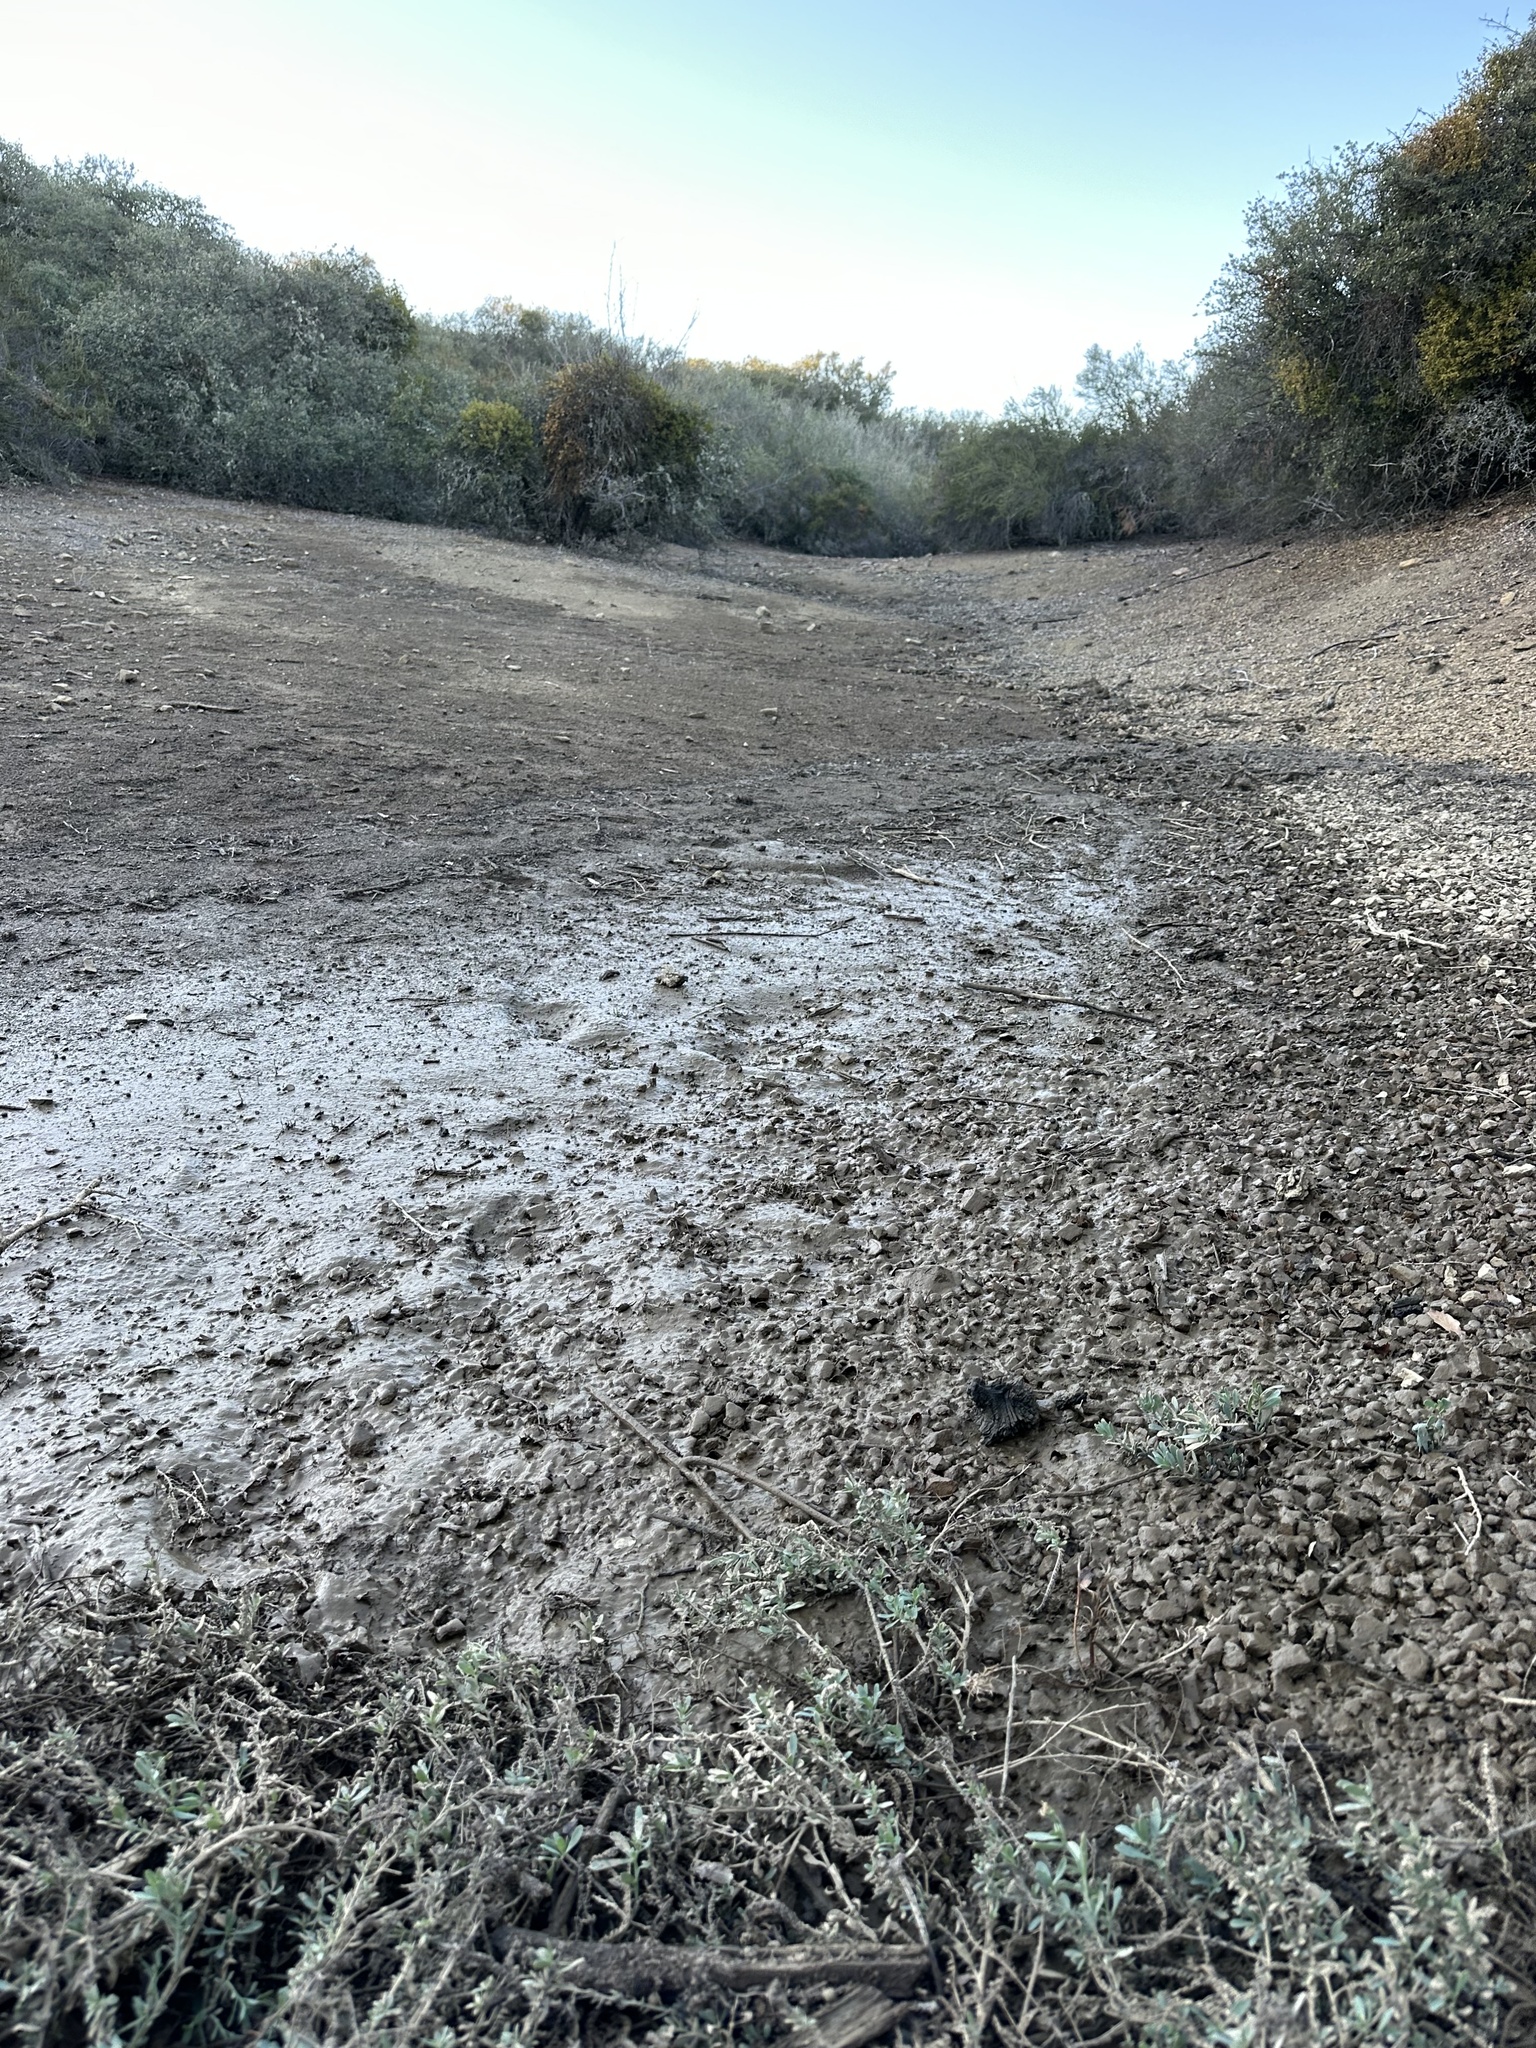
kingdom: Plantae
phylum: Tracheophyta
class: Magnoliopsida
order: Boraginales
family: Heliotropiaceae
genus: Heliotropium
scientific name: Heliotropium curassavicum
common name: Seaside heliotrope
